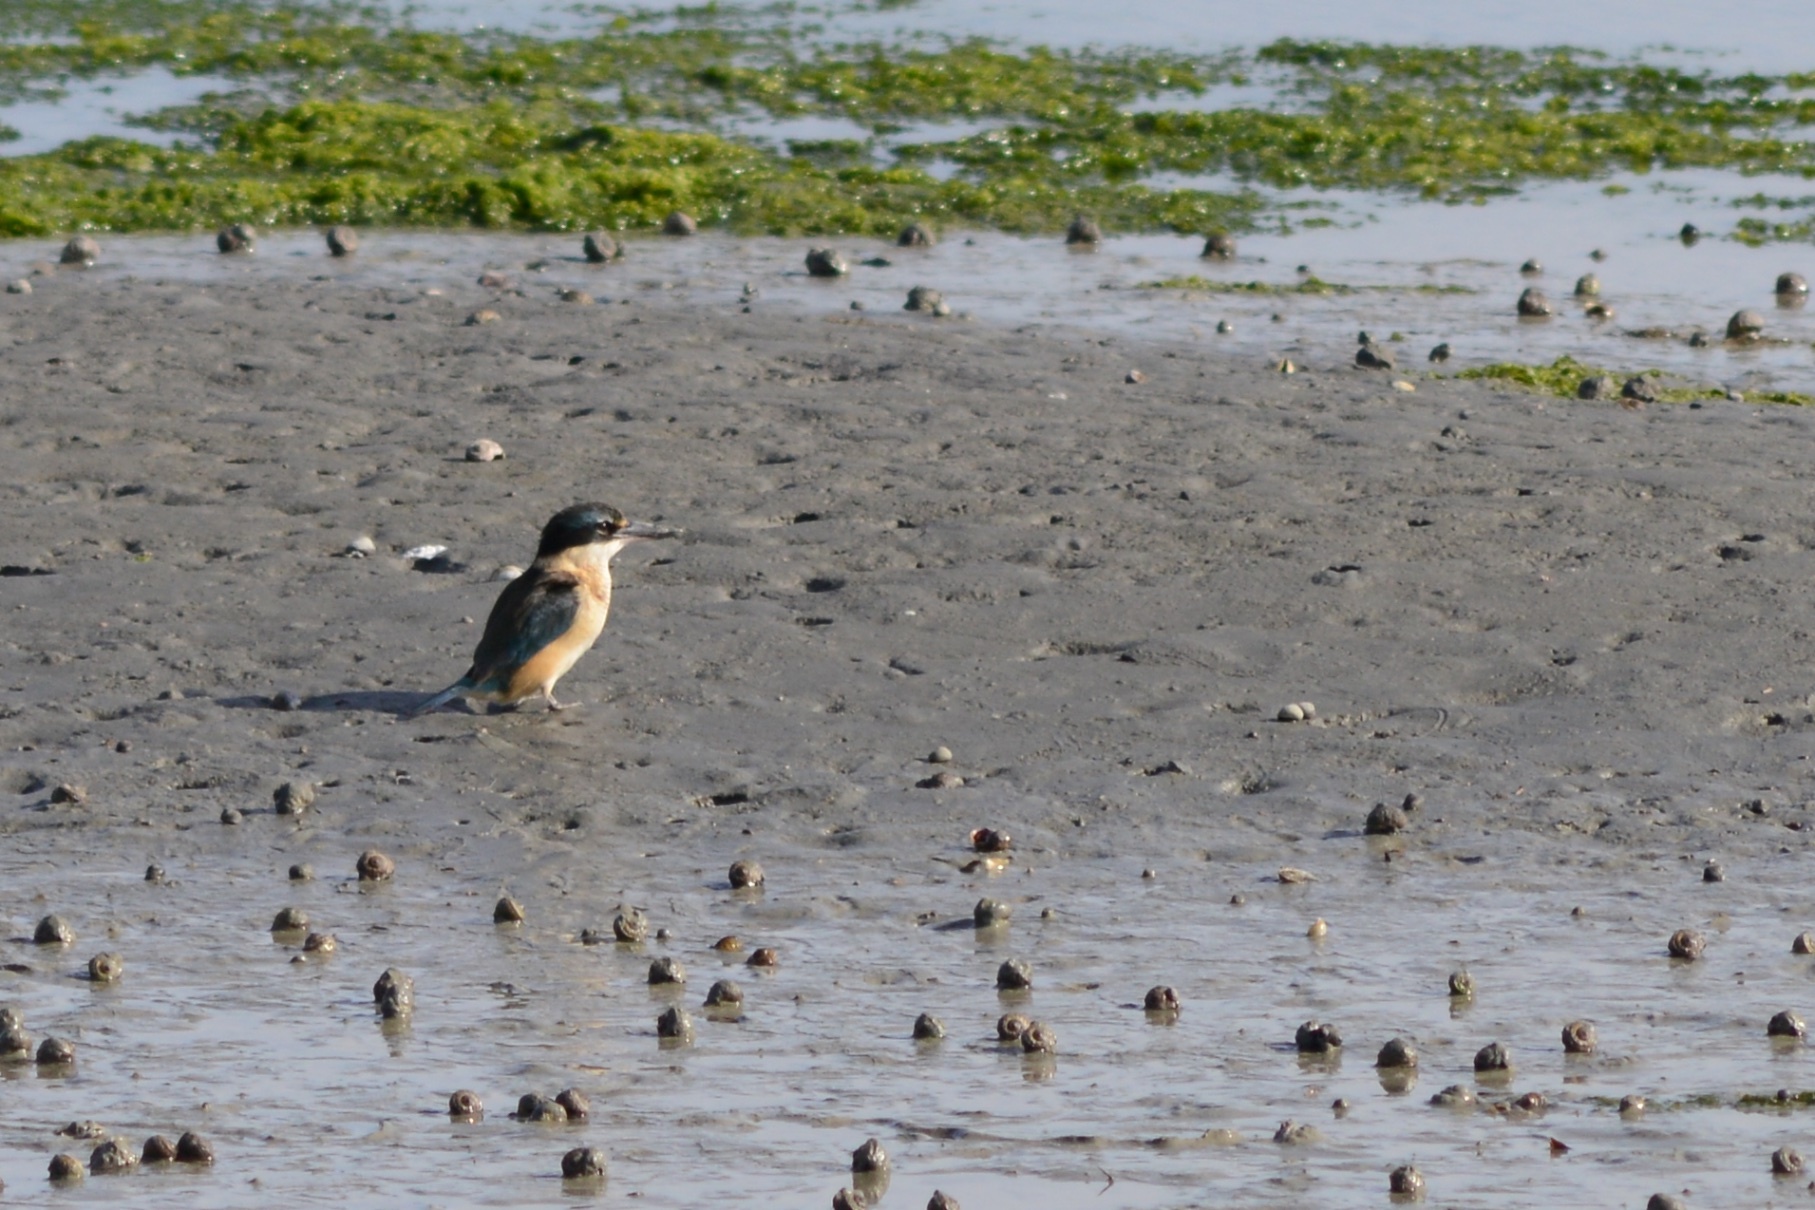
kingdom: Animalia
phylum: Chordata
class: Aves
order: Coraciiformes
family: Alcedinidae
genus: Todiramphus
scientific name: Todiramphus sanctus
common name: Sacred kingfisher
